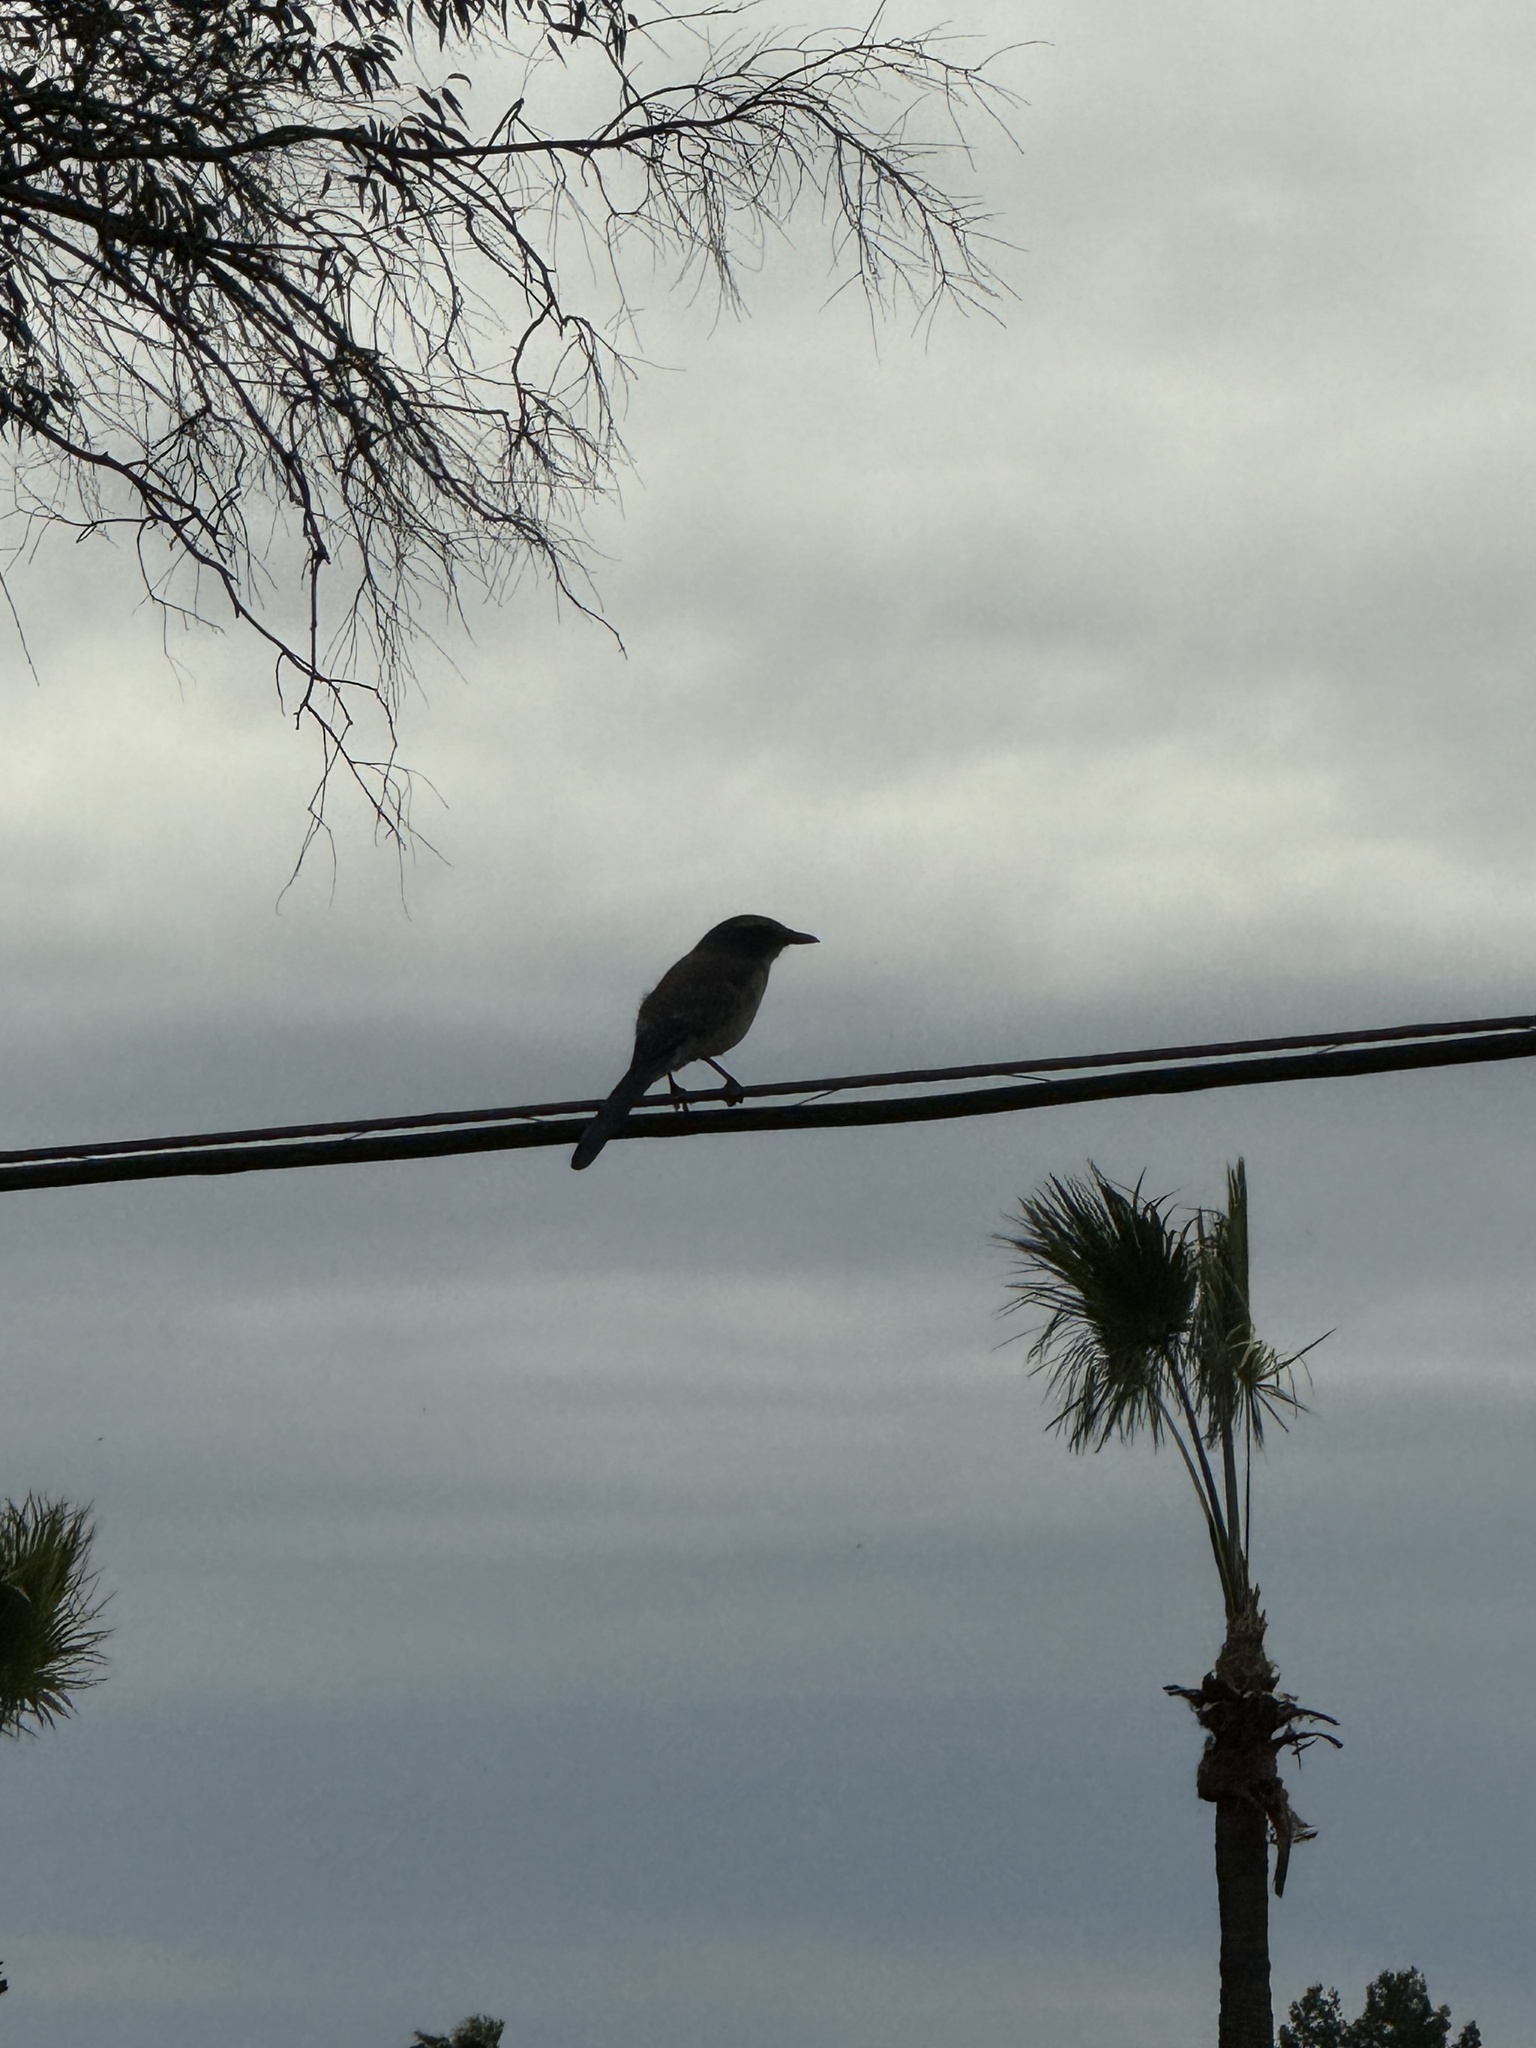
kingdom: Animalia
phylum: Chordata
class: Aves
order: Passeriformes
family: Corvidae
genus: Aphelocoma
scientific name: Aphelocoma californica
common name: California scrub-jay
